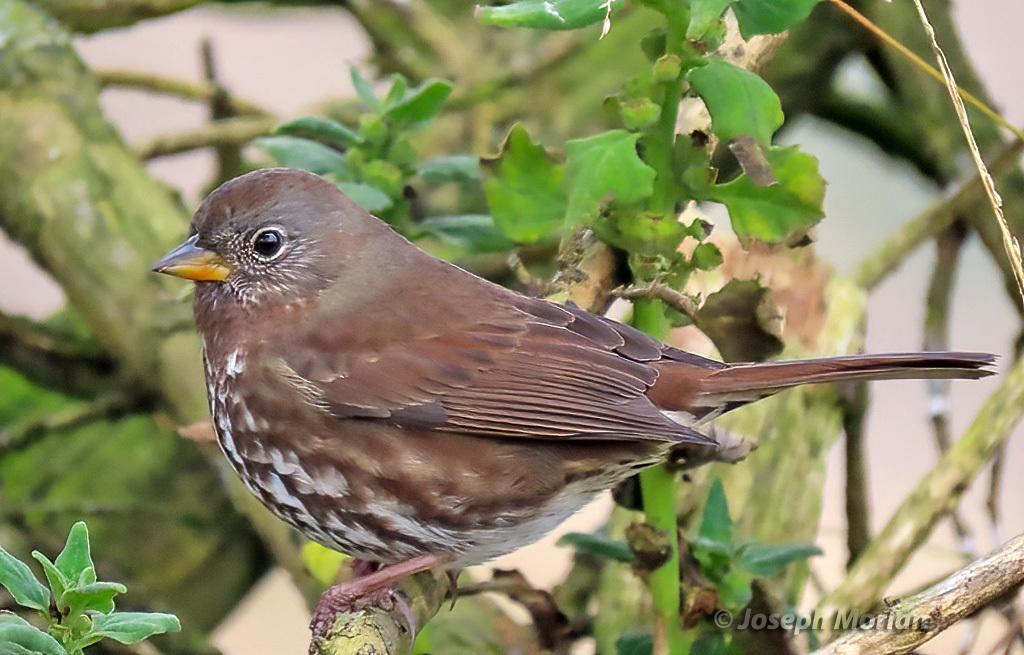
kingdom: Animalia
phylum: Chordata
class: Aves
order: Passeriformes
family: Passerellidae
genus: Passerella
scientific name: Passerella iliaca
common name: Fox sparrow
